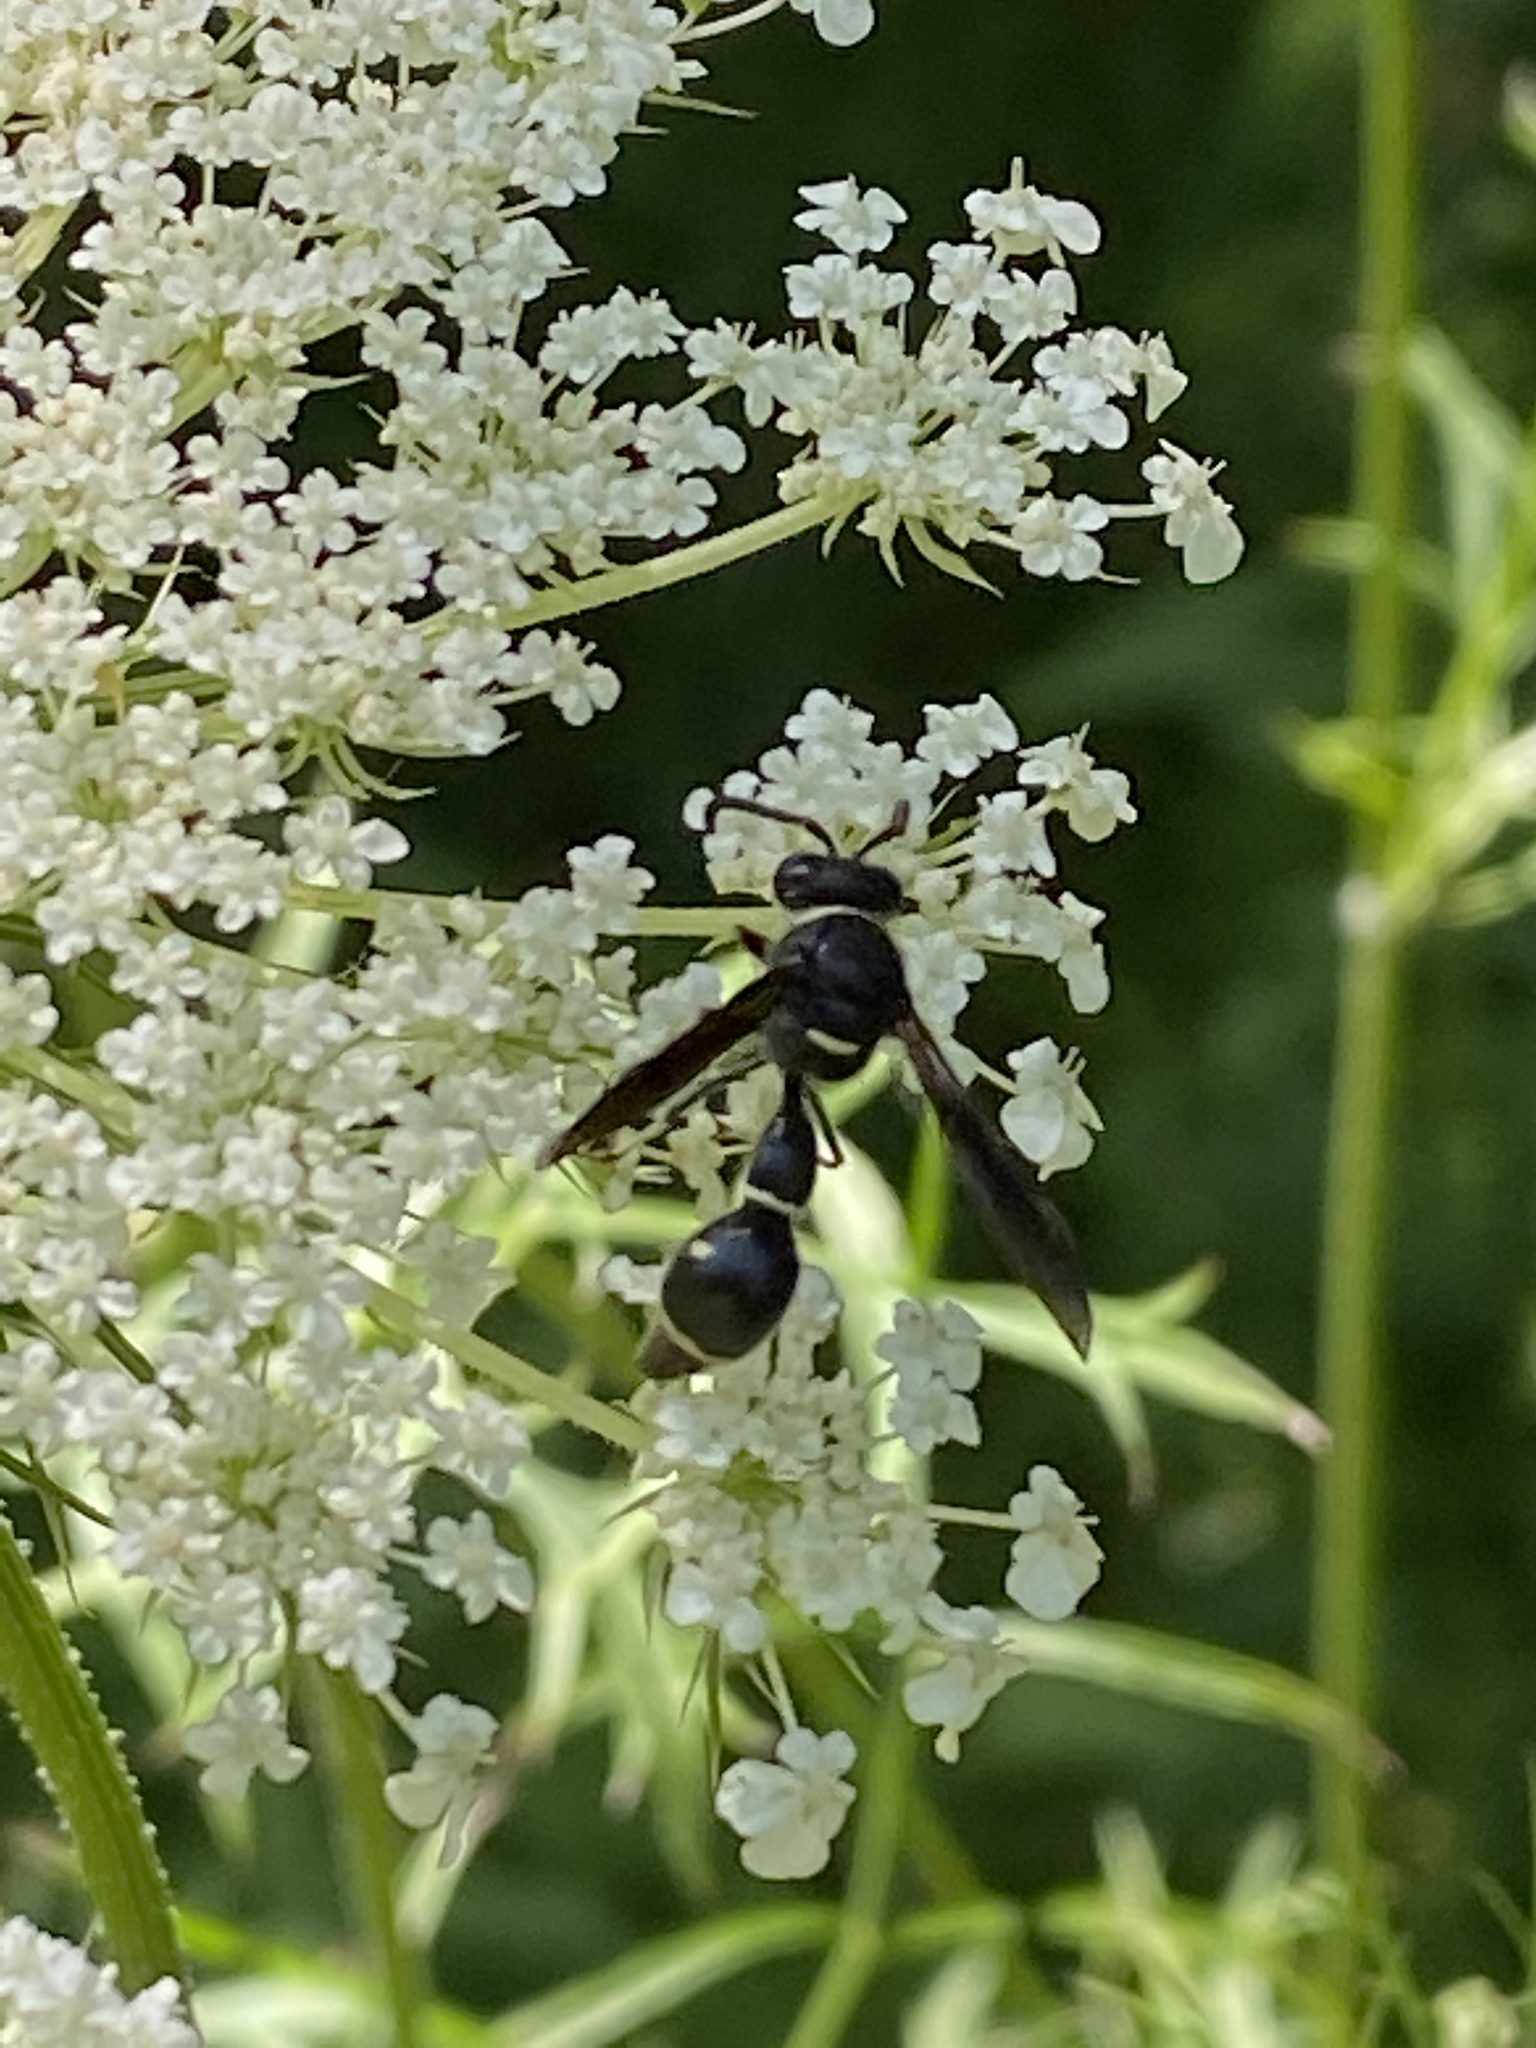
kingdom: Animalia
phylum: Arthropoda
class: Insecta
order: Hymenoptera
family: Vespidae
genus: Eumenes
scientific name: Eumenes fraternus
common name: Fraternal potter wasp
